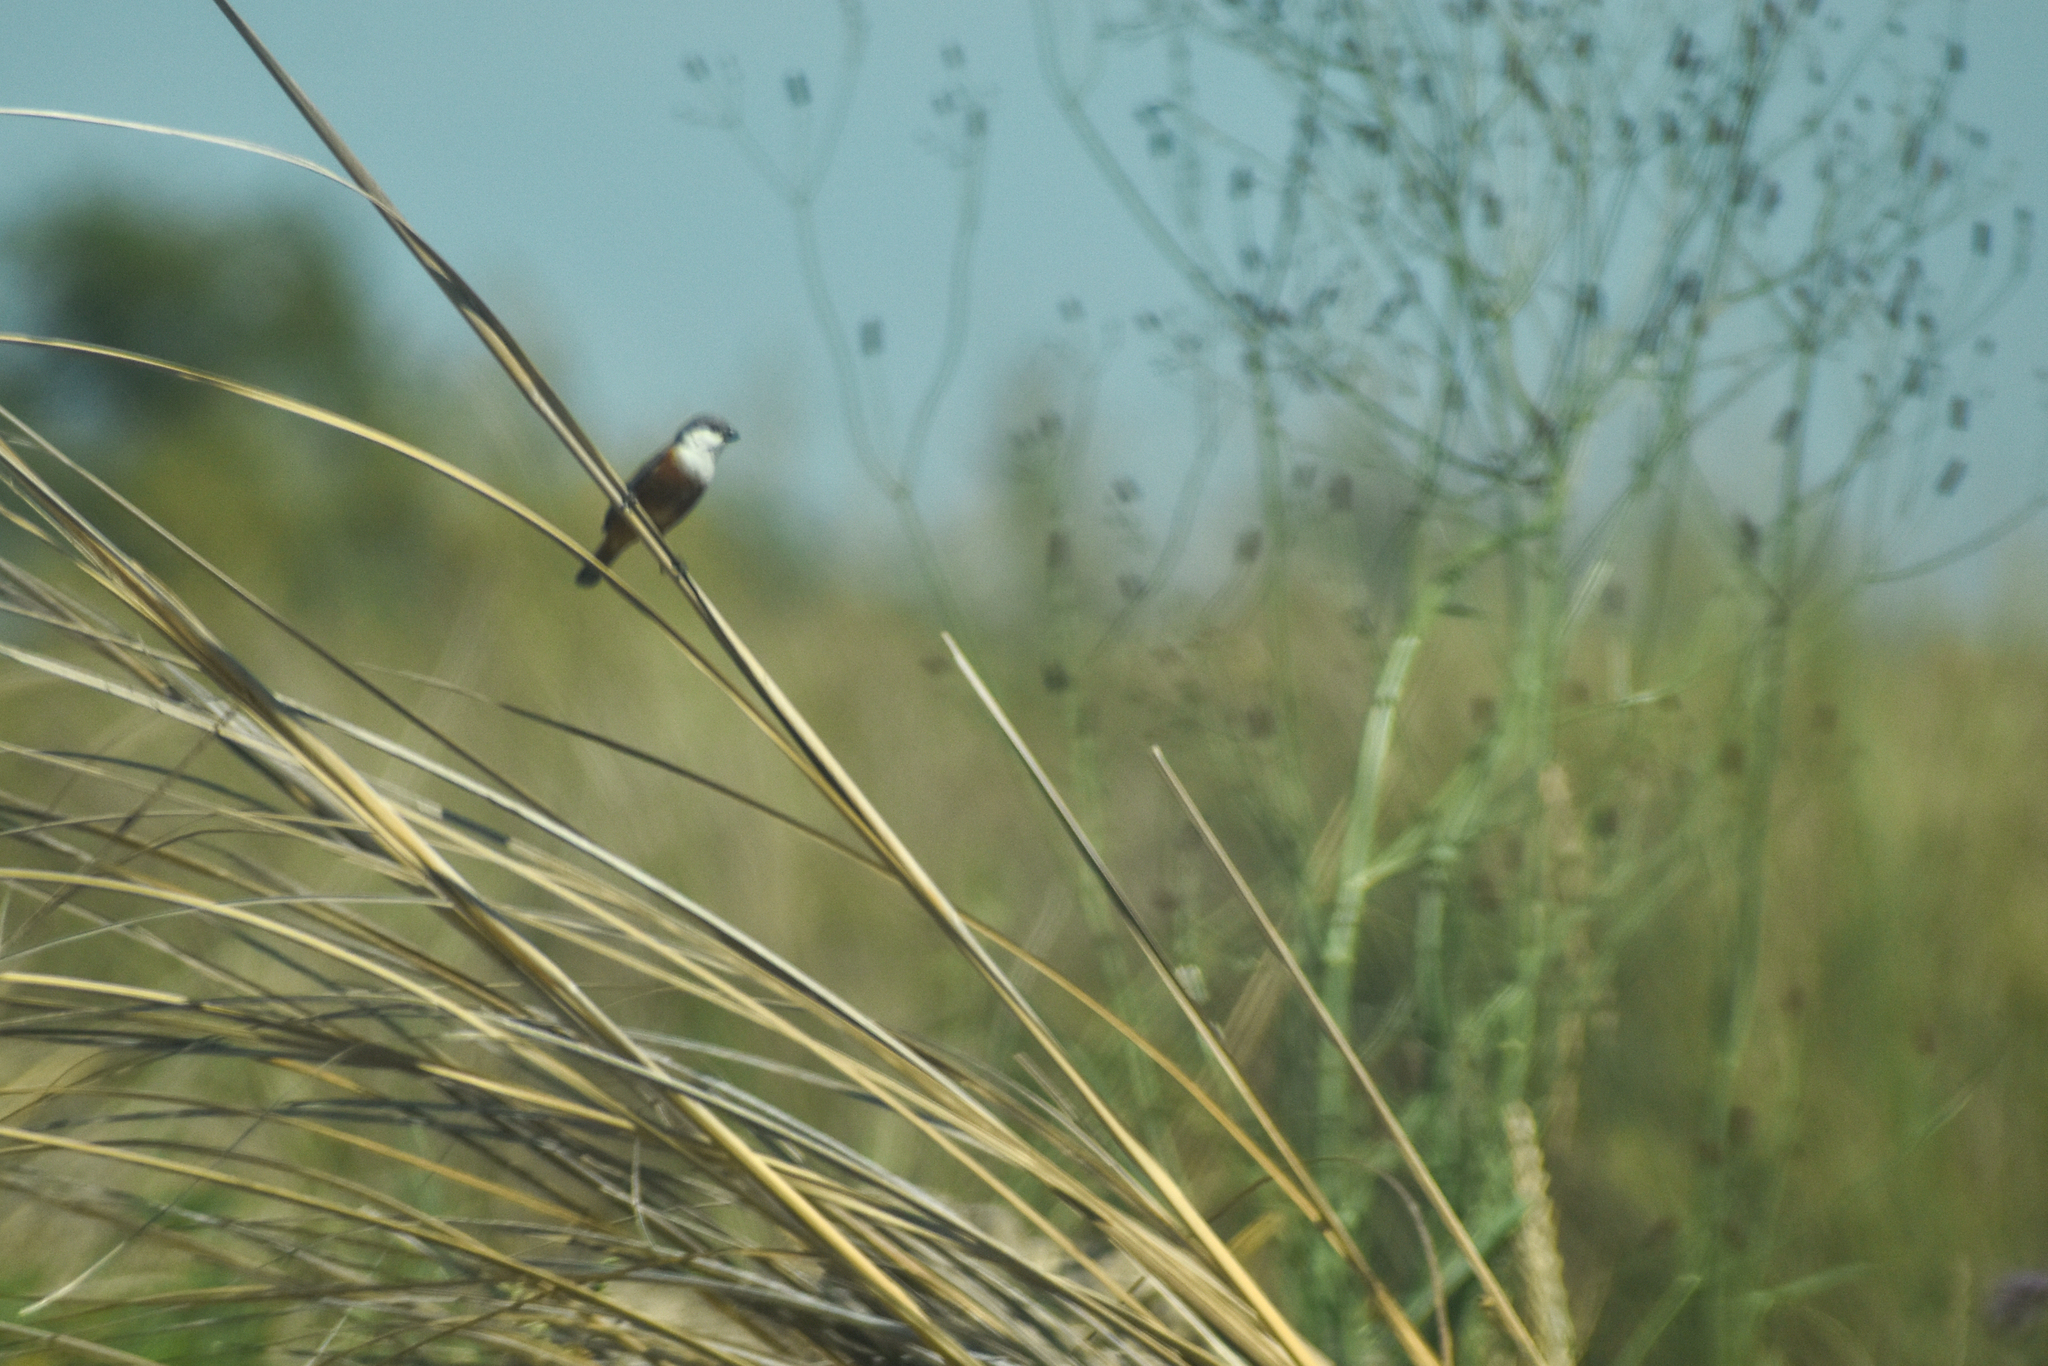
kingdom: Animalia
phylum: Chordata
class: Aves
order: Passeriformes
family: Thraupidae
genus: Sporophila
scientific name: Sporophila palustris
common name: Marsh seedeater
